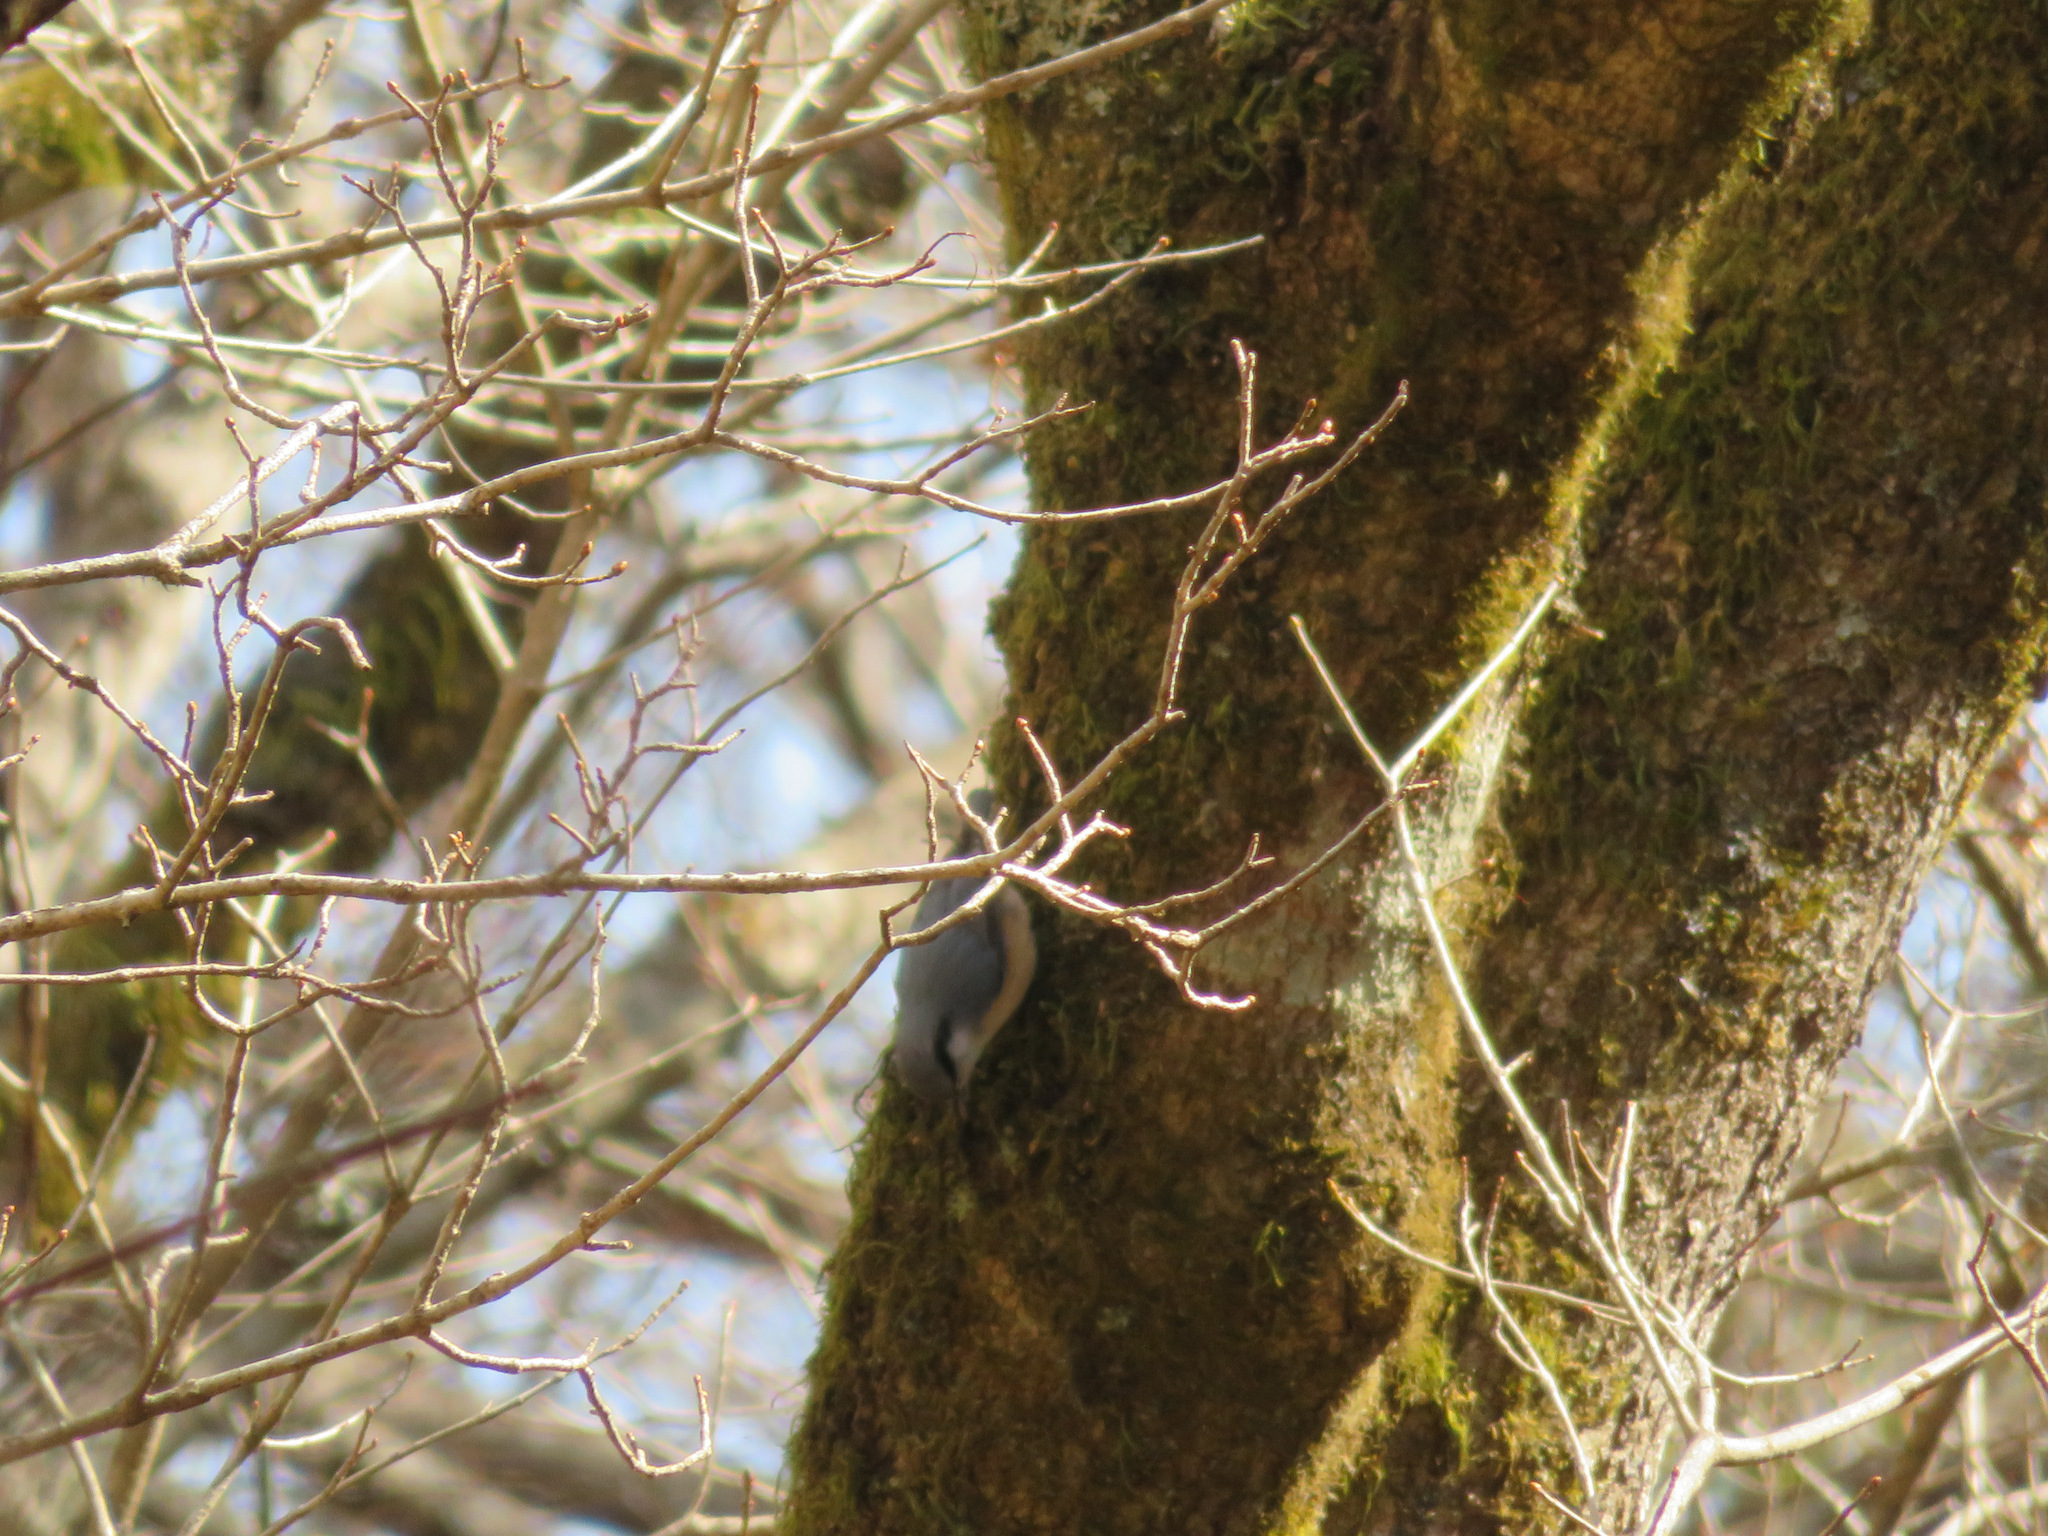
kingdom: Animalia
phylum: Chordata
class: Aves
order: Passeriformes
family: Sittidae
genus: Sitta
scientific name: Sitta europaea
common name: Eurasian nuthatch
